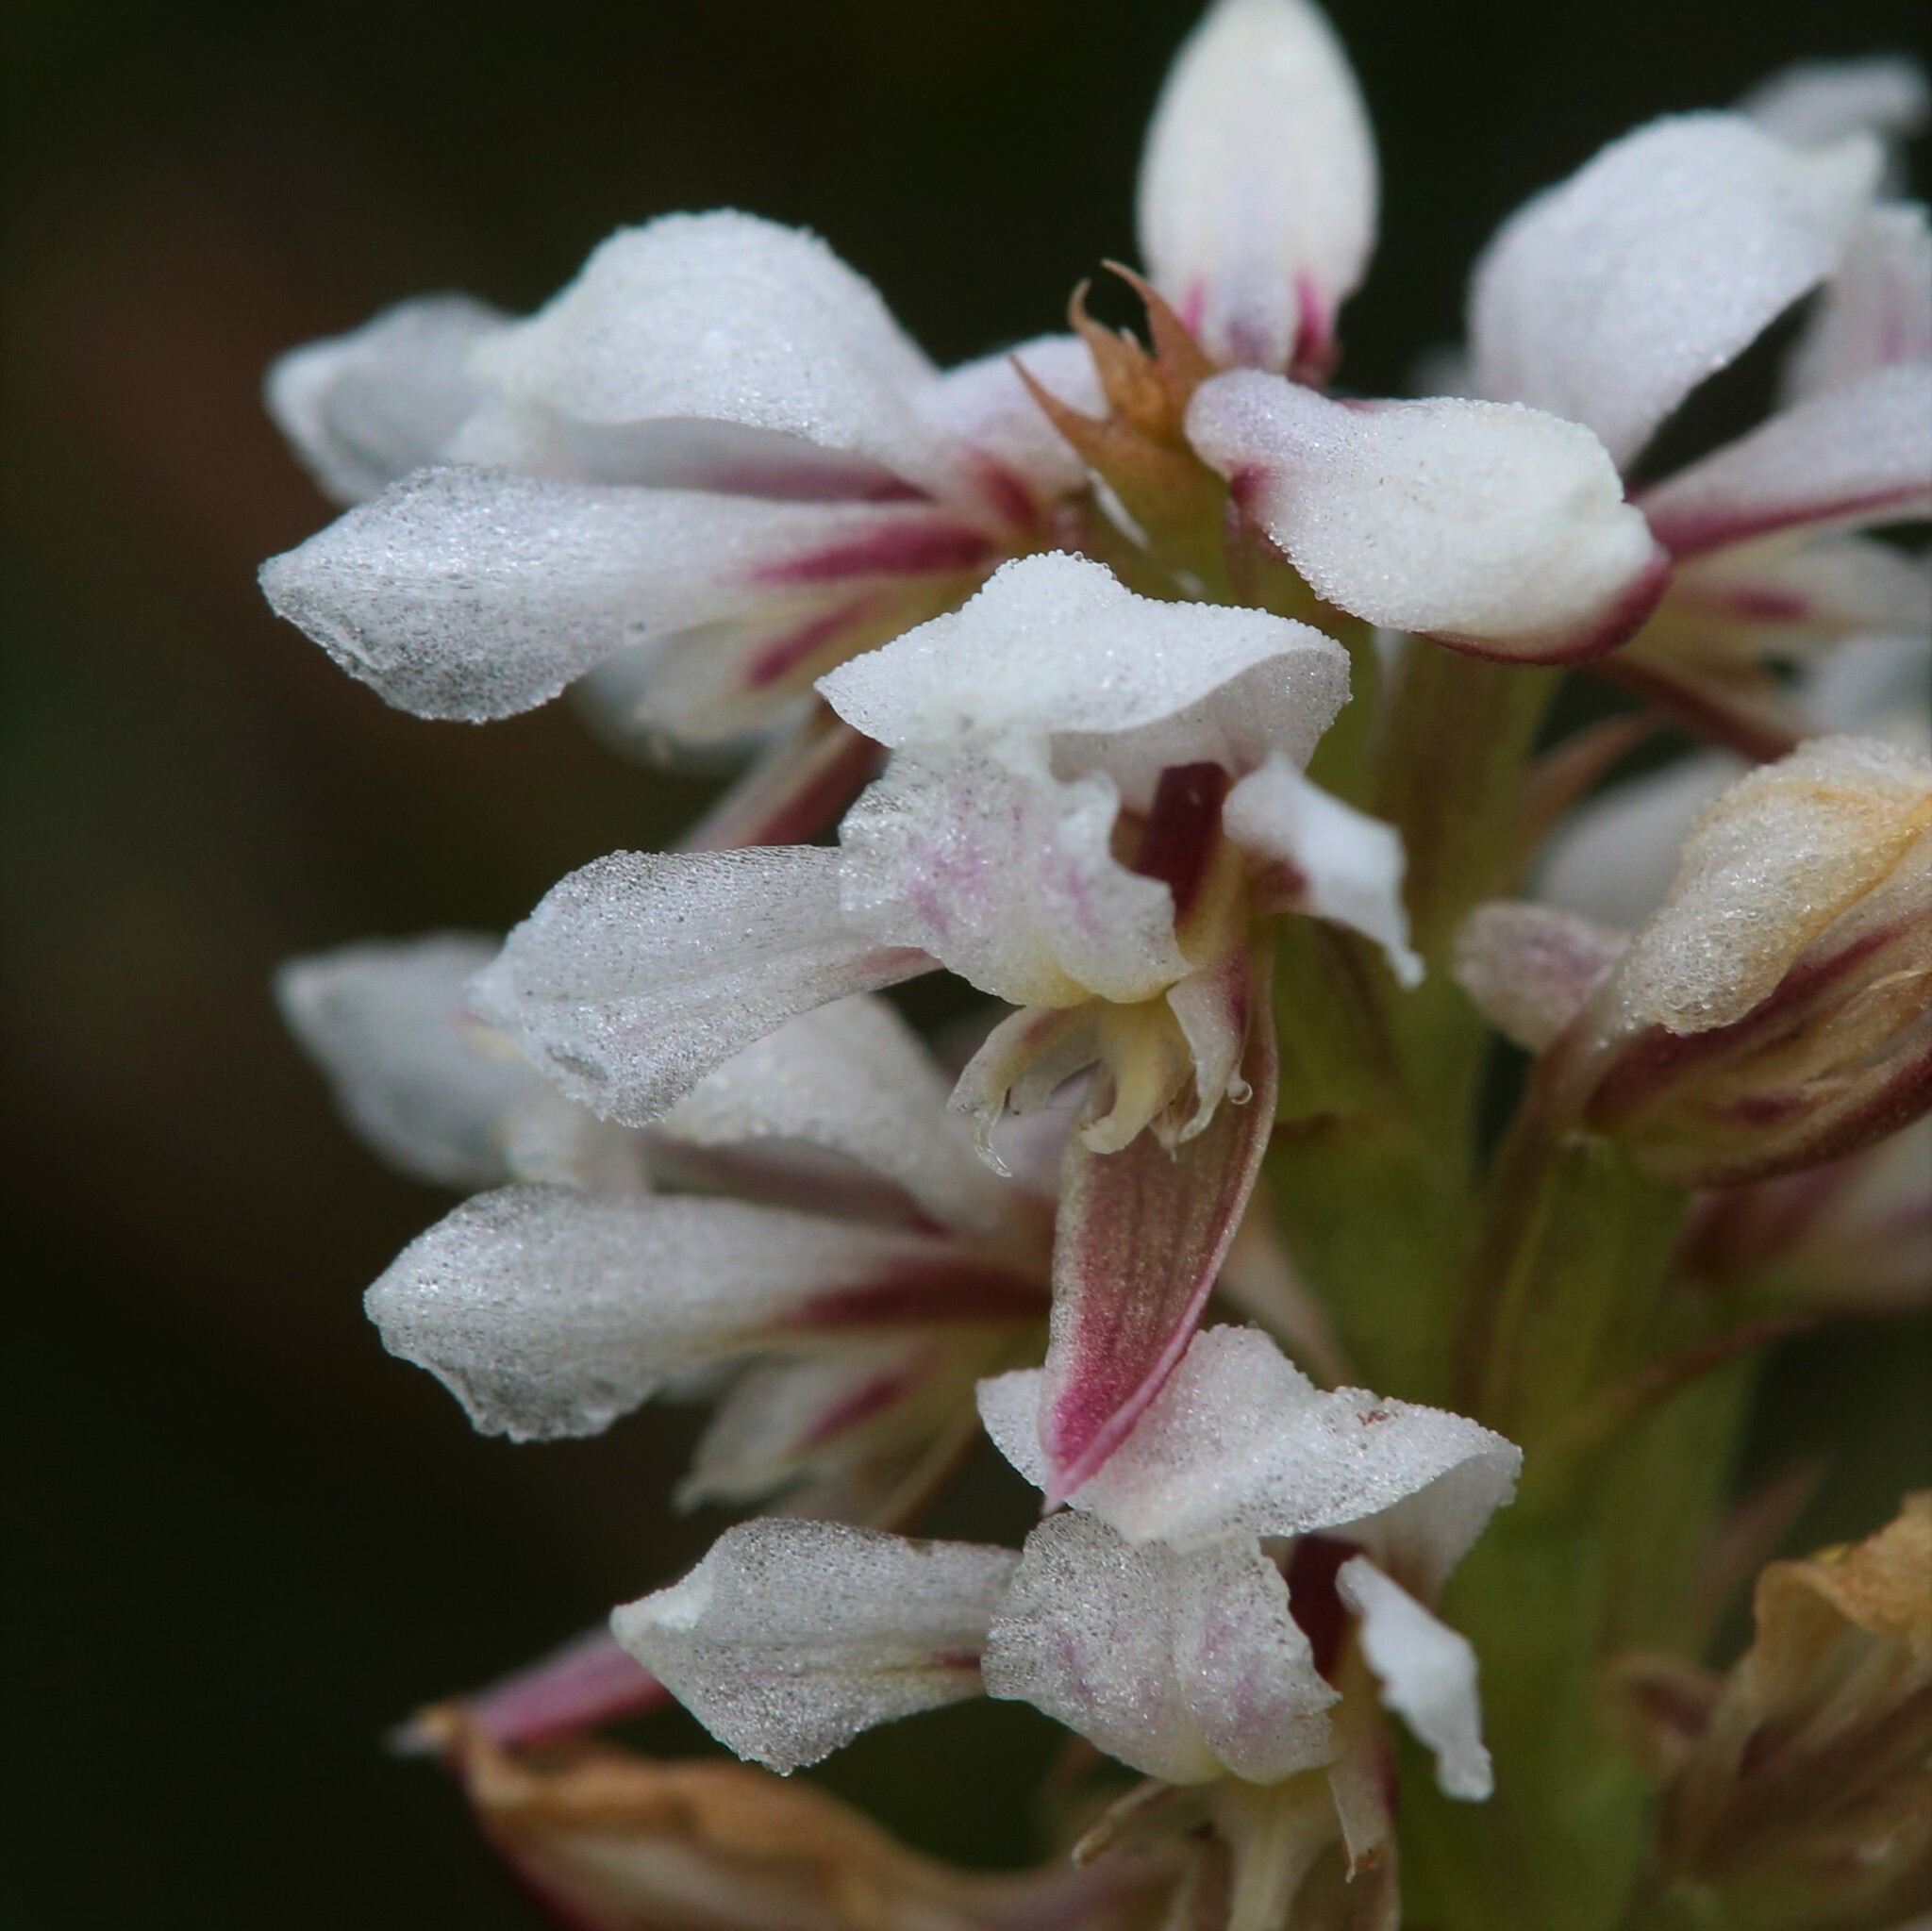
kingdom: Plantae
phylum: Tracheophyta
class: Liliopsida
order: Asparagales
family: Orchidaceae
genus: Prasophyllum
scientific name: Prasophyllum gibbosum
